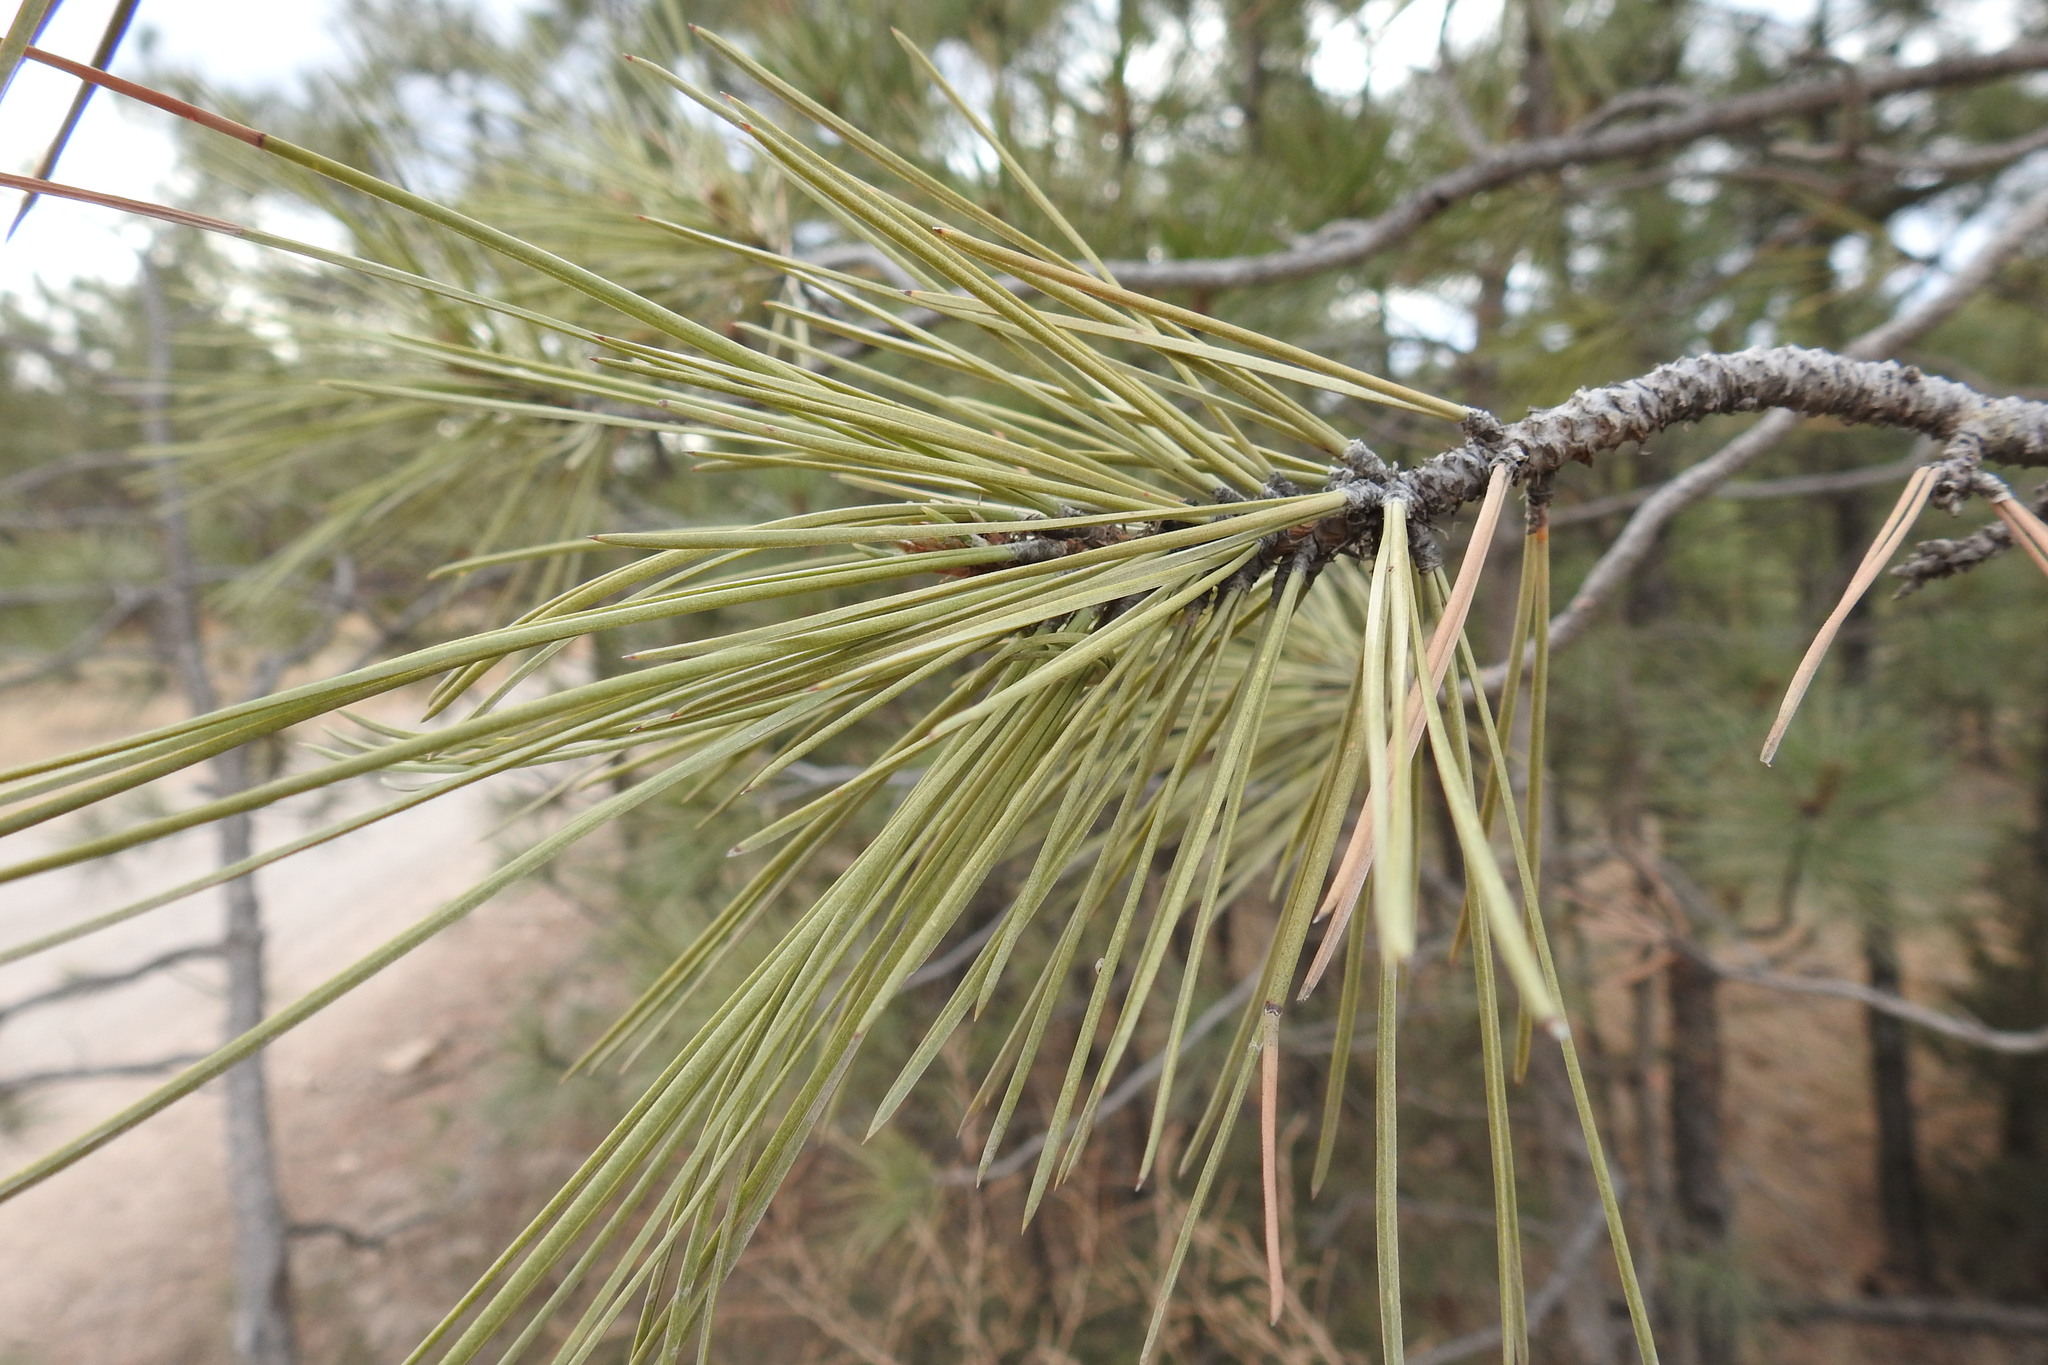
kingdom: Plantae
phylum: Tracheophyta
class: Pinopsida
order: Pinales
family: Pinaceae
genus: Pinus
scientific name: Pinus ponderosa
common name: Western yellow-pine
